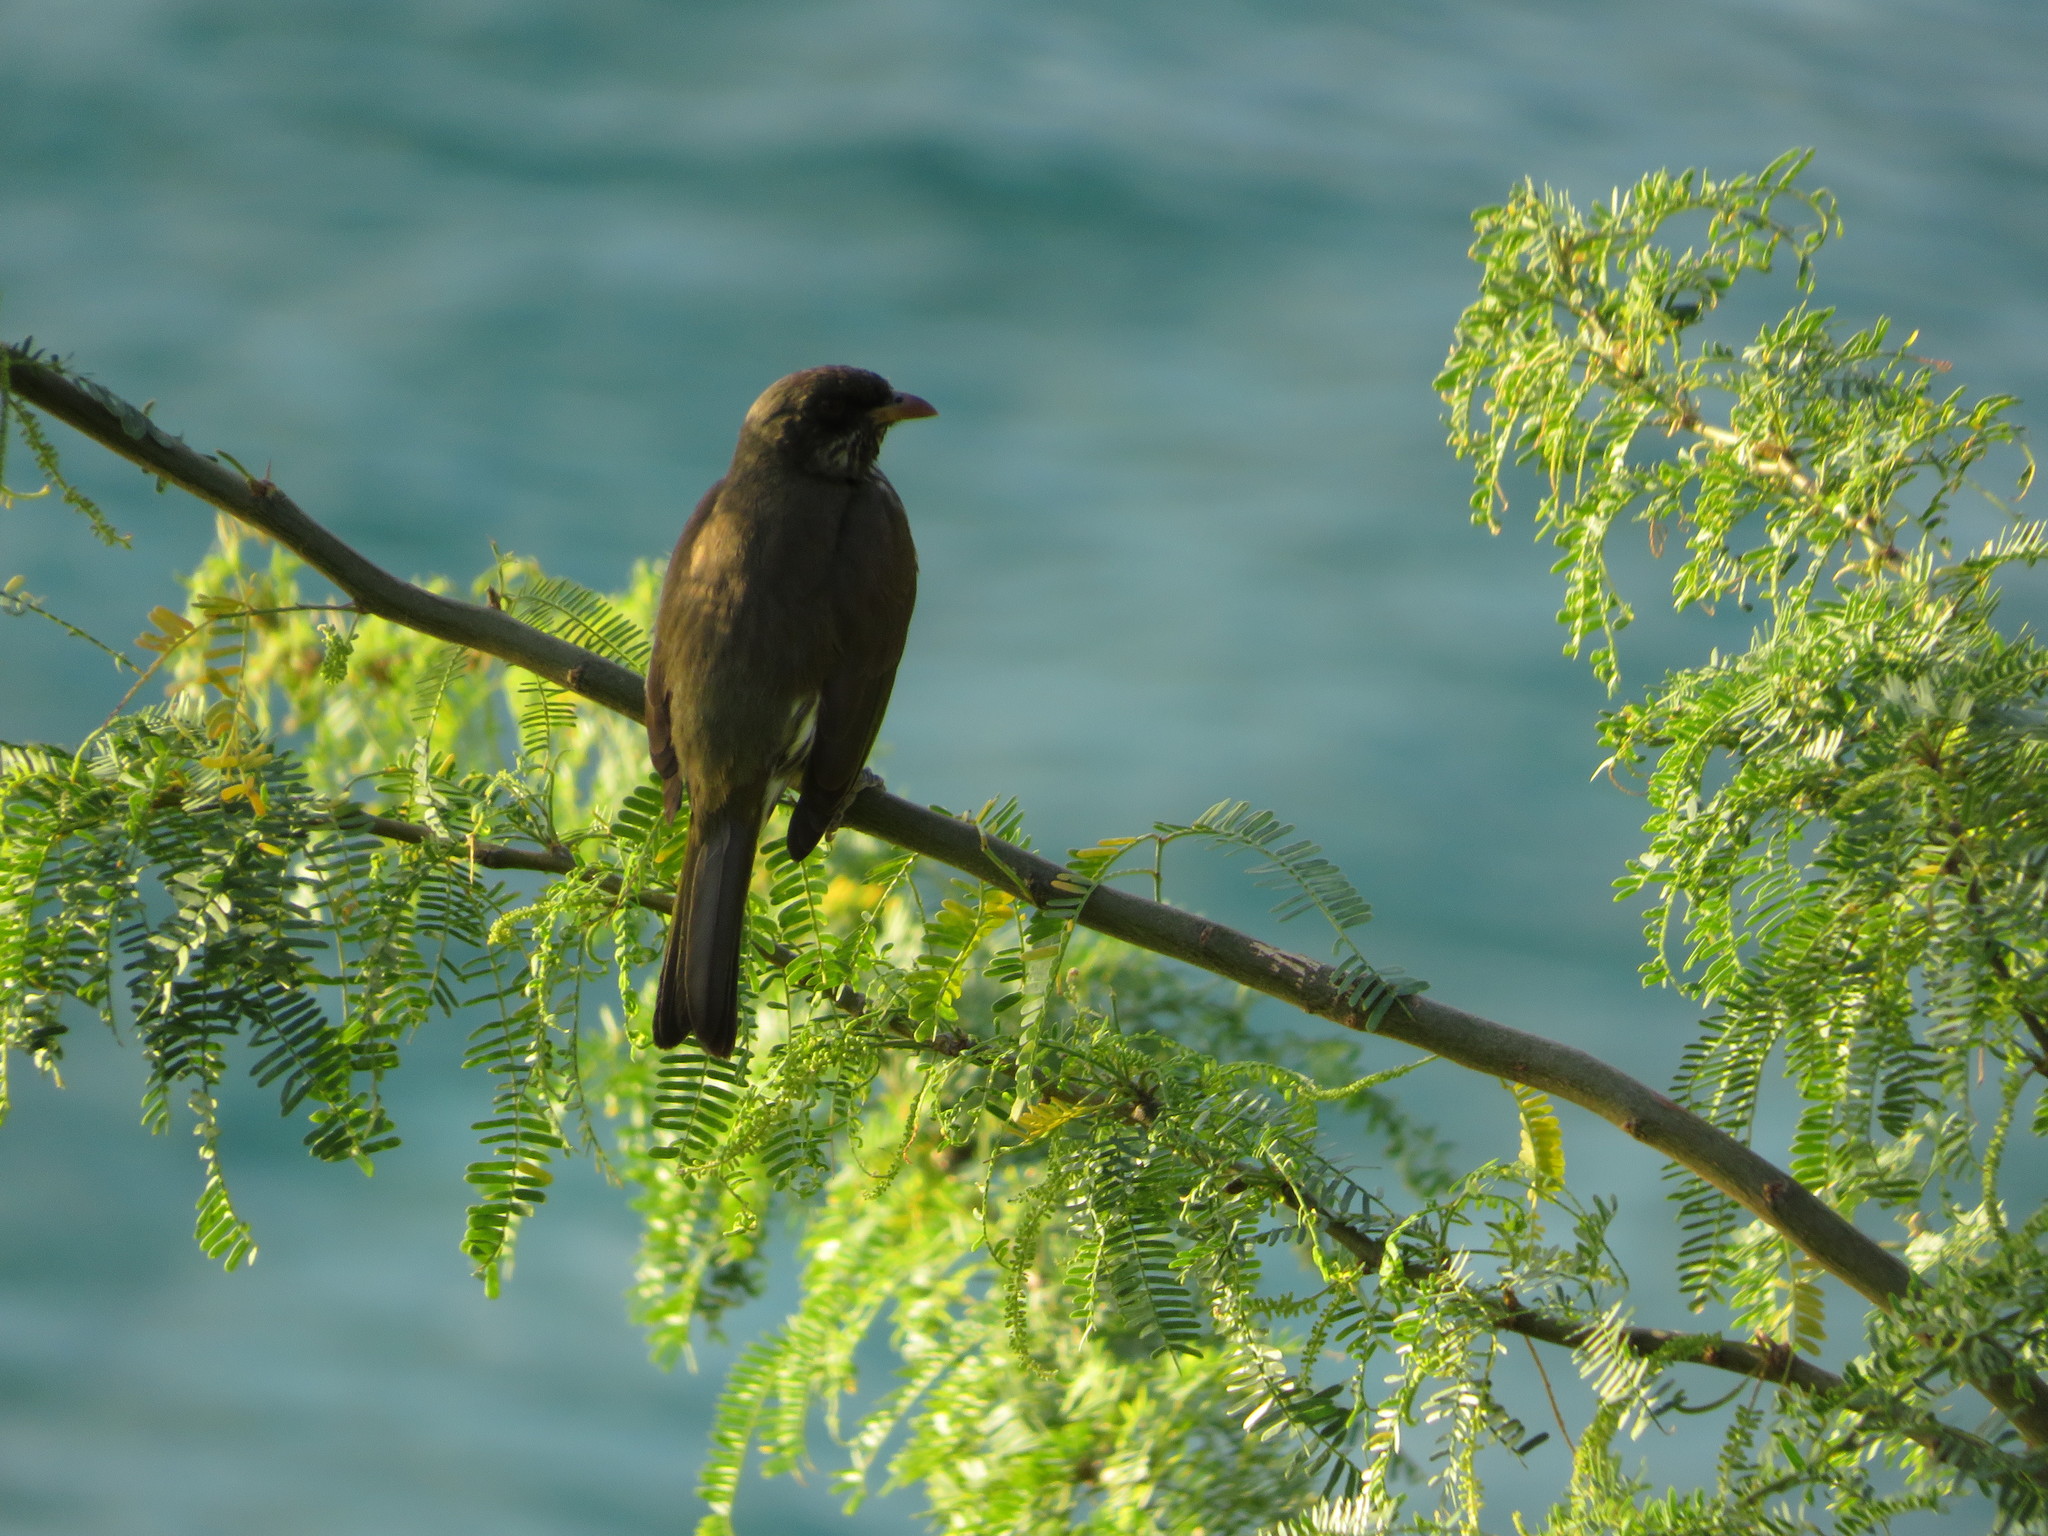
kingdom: Animalia
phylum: Chordata
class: Aves
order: Passeriformes
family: Dulidae
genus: Dulus
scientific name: Dulus dominicus
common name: Palmchat
